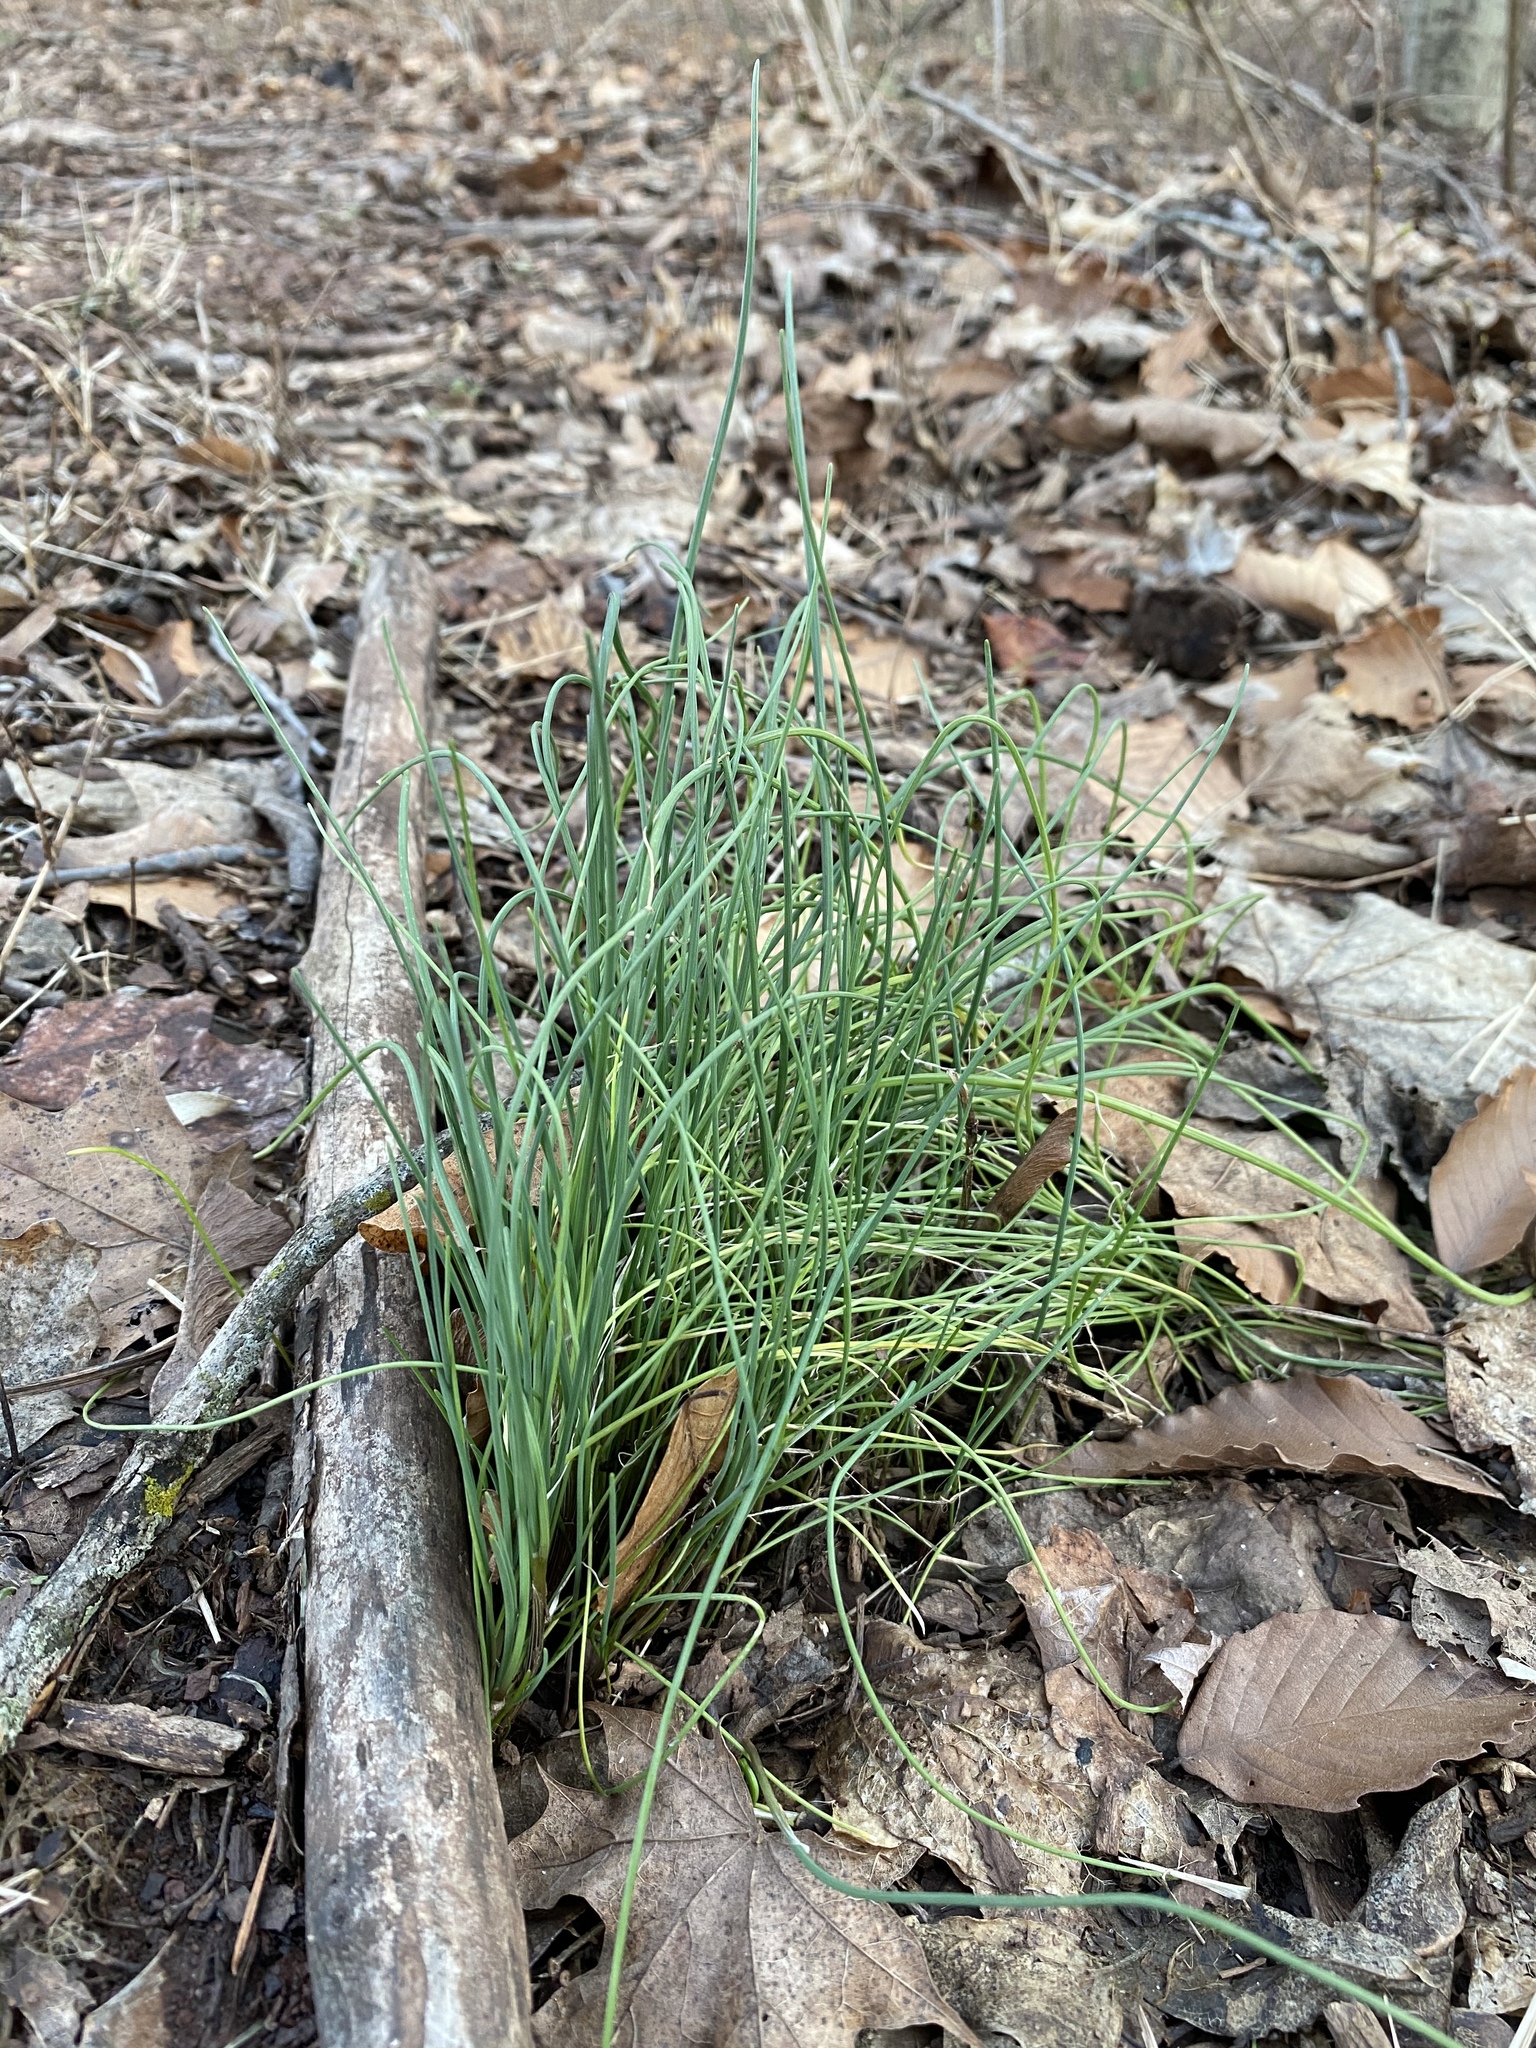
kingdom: Plantae
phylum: Tracheophyta
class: Liliopsida
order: Asparagales
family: Amaryllidaceae
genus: Allium
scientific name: Allium vineale
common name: Crow garlic
